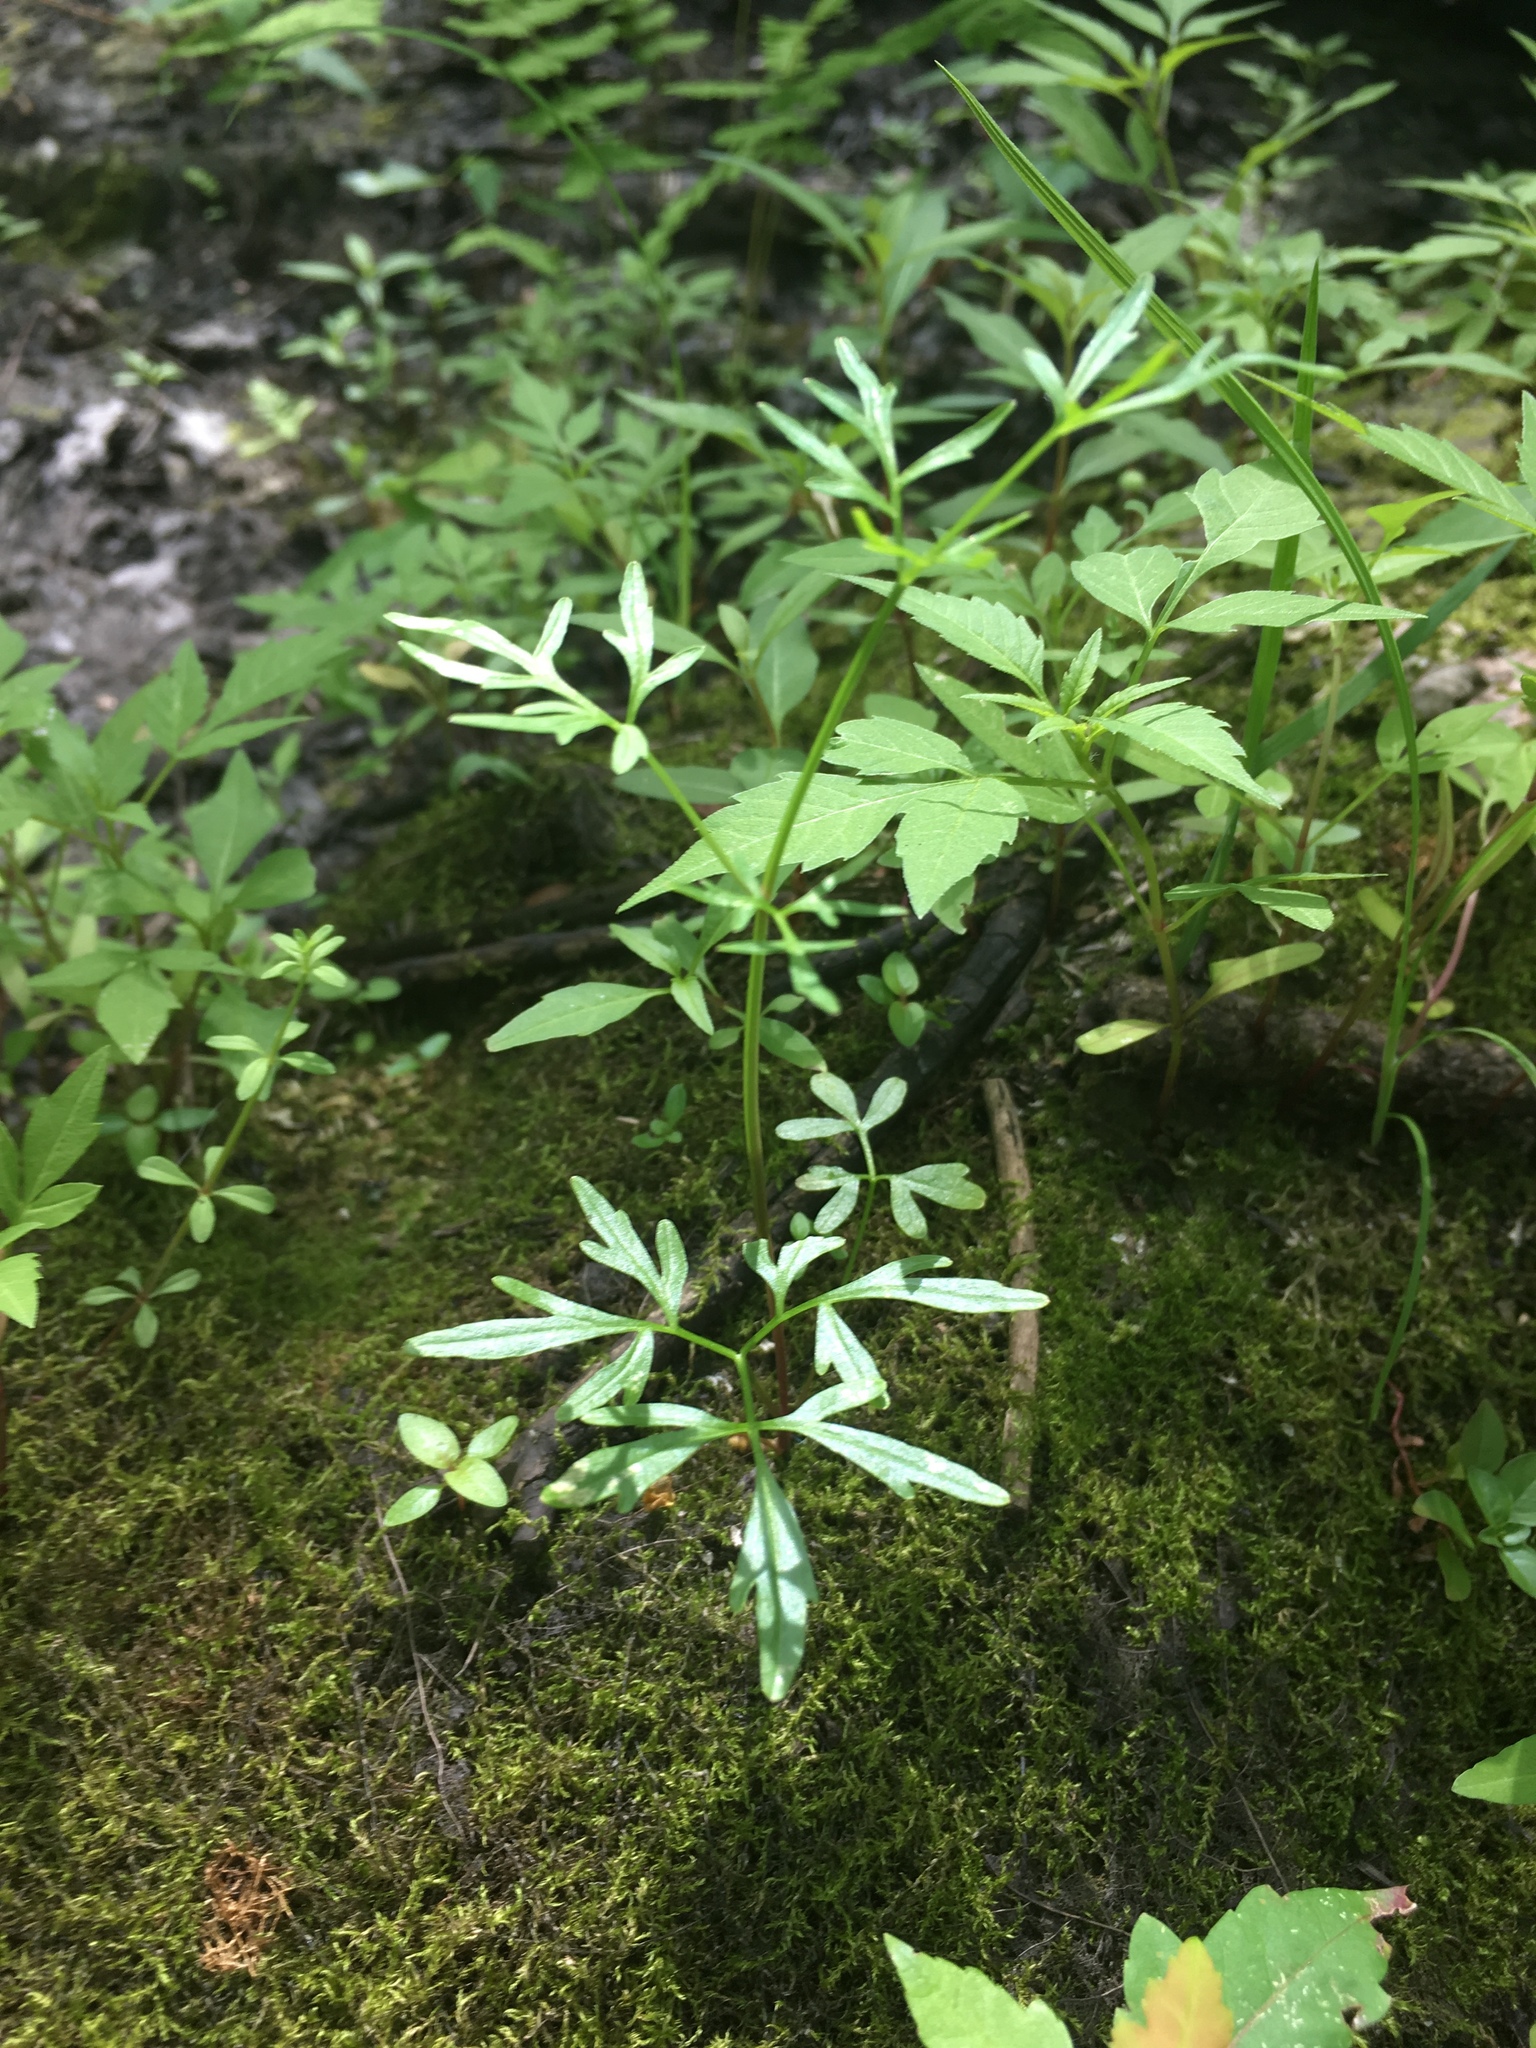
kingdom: Plantae
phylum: Tracheophyta
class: Magnoliopsida
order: Apiales
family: Apiaceae
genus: Cicuta
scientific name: Cicuta bulbifera
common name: Bulb-bearing water-hemlock
